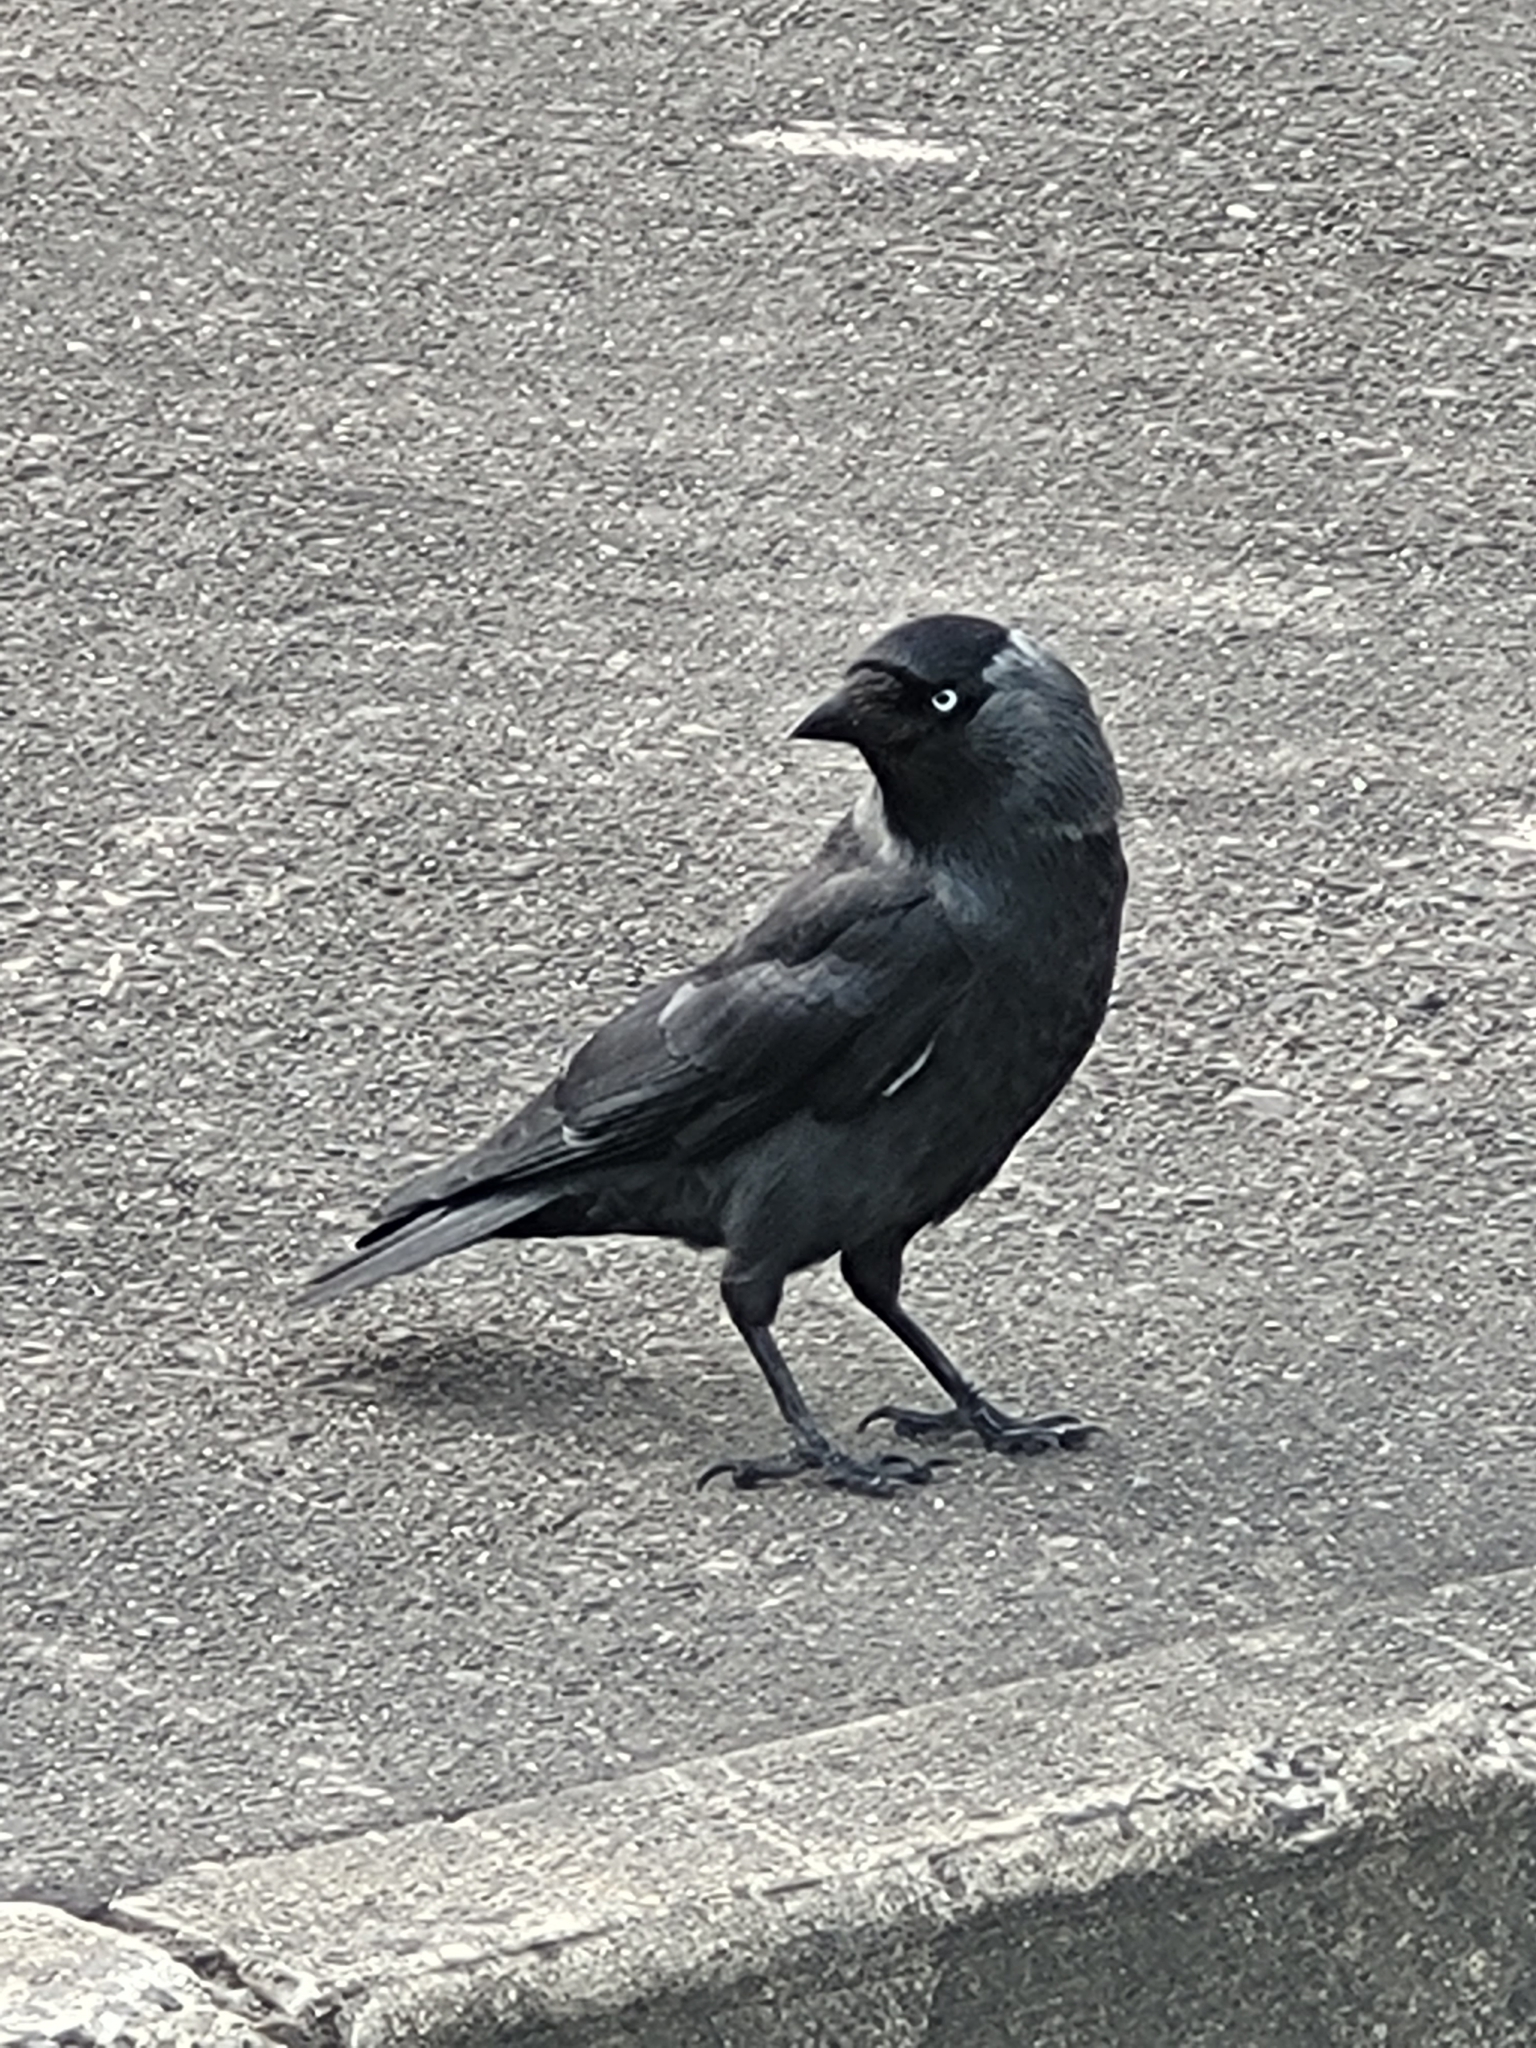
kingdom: Animalia
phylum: Chordata
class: Aves
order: Passeriformes
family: Corvidae
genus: Coloeus
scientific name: Coloeus monedula
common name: Western jackdaw
